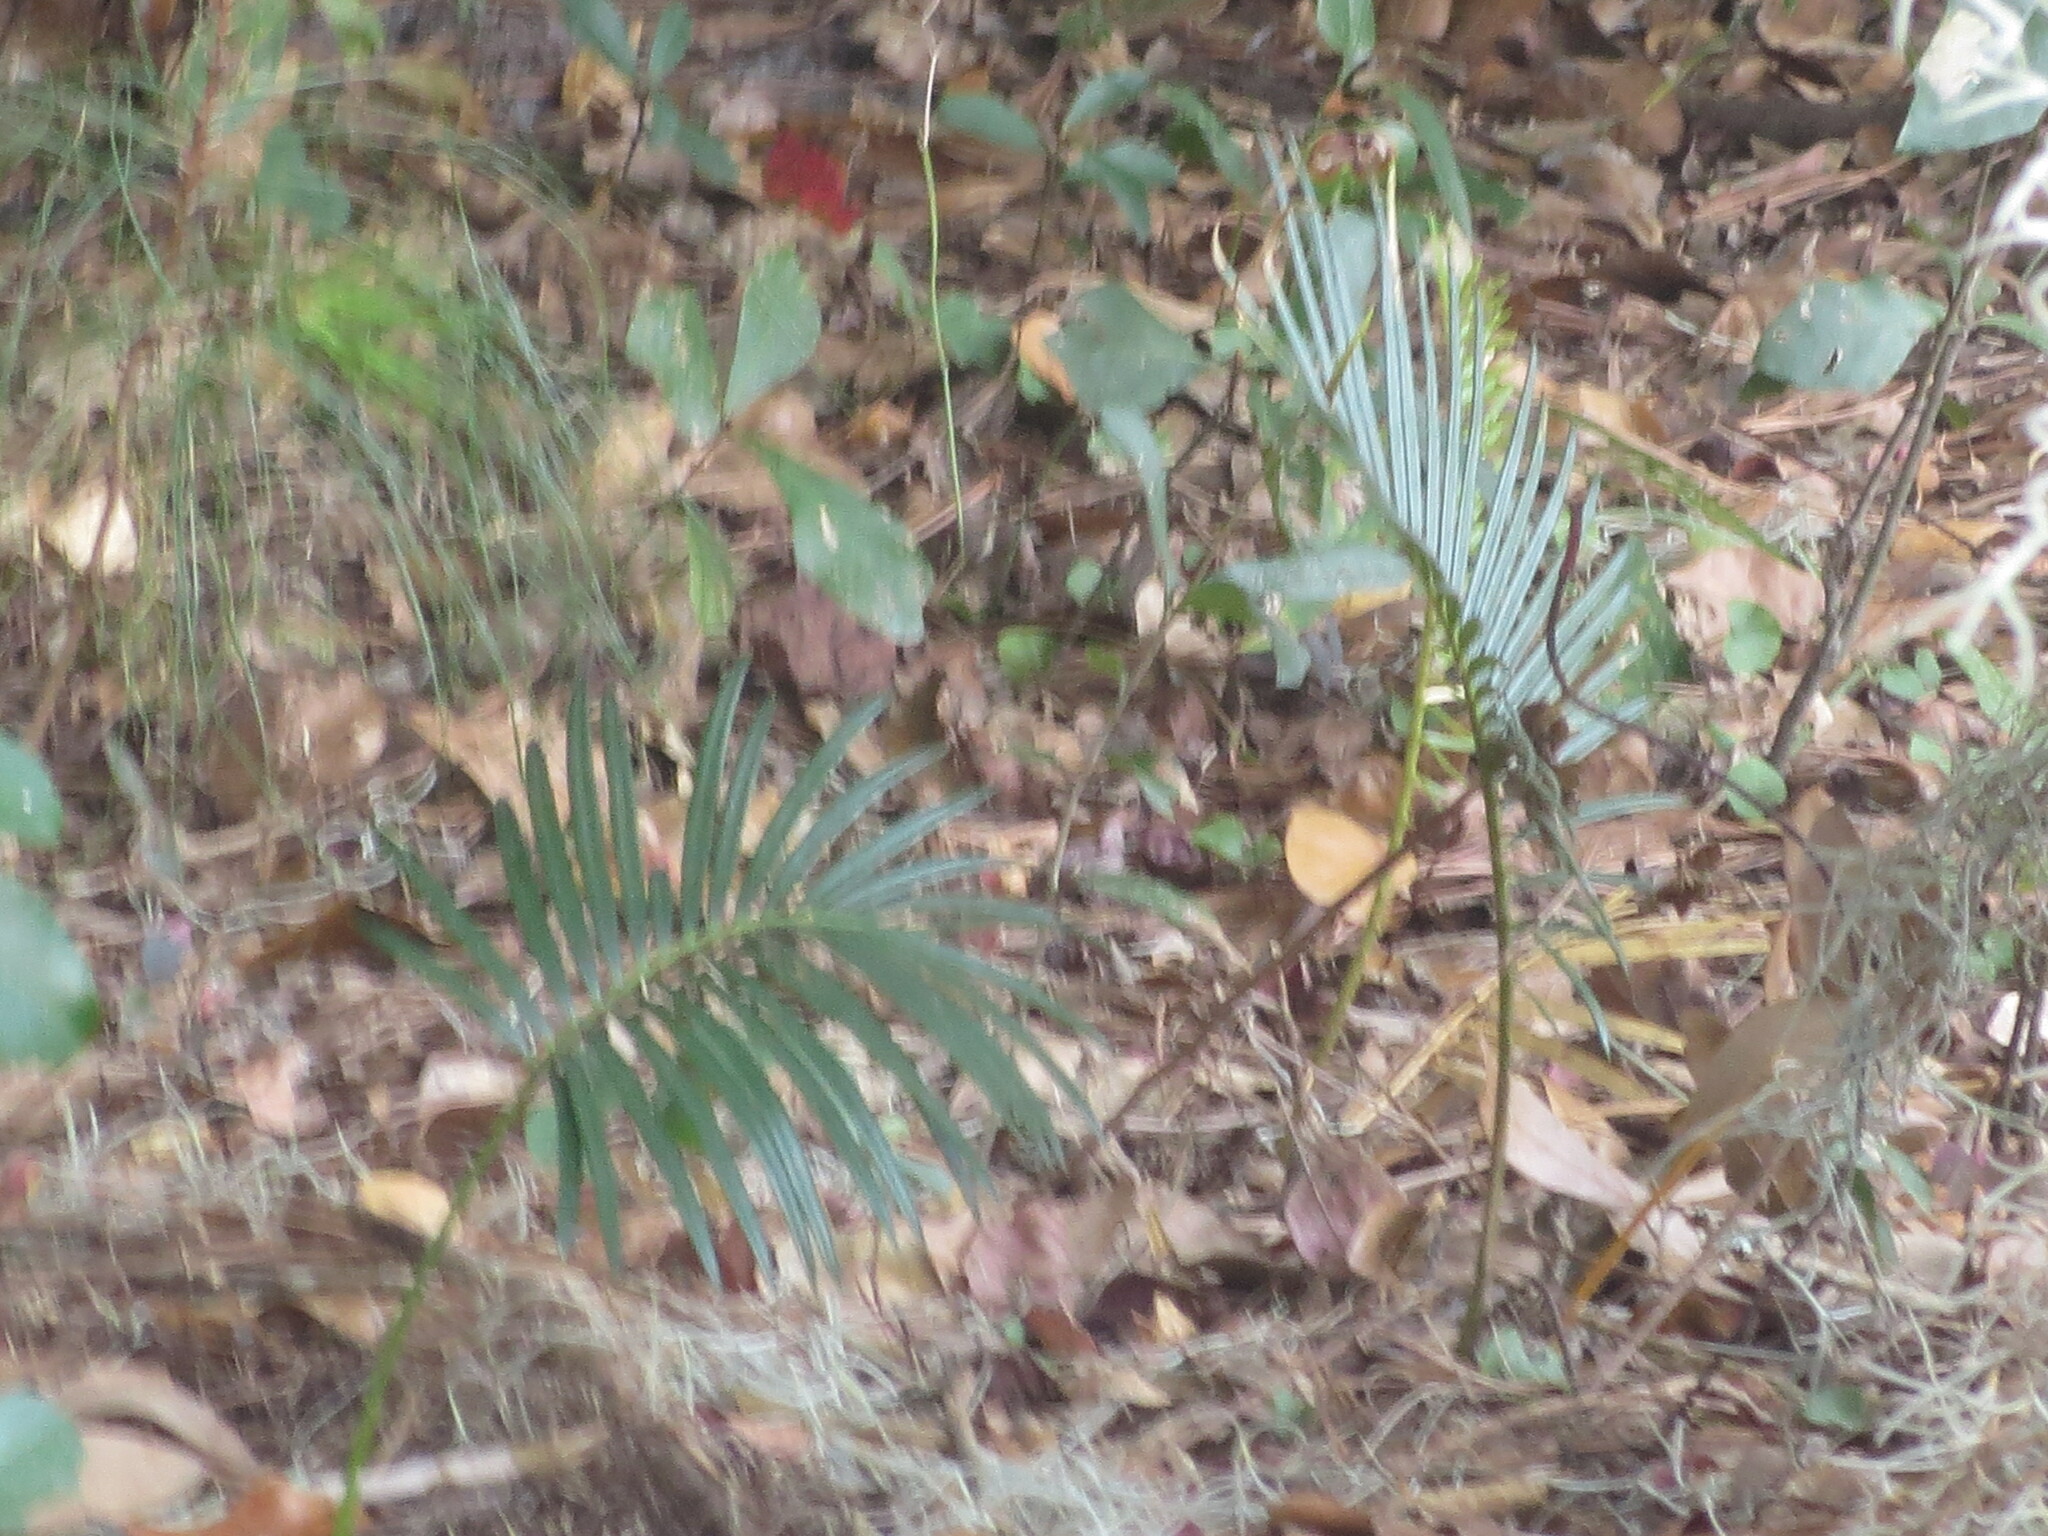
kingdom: Plantae
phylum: Tracheophyta
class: Cycadopsida
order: Cycadales
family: Cycadaceae
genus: Cycas
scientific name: Cycas revoluta
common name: Sago palm
